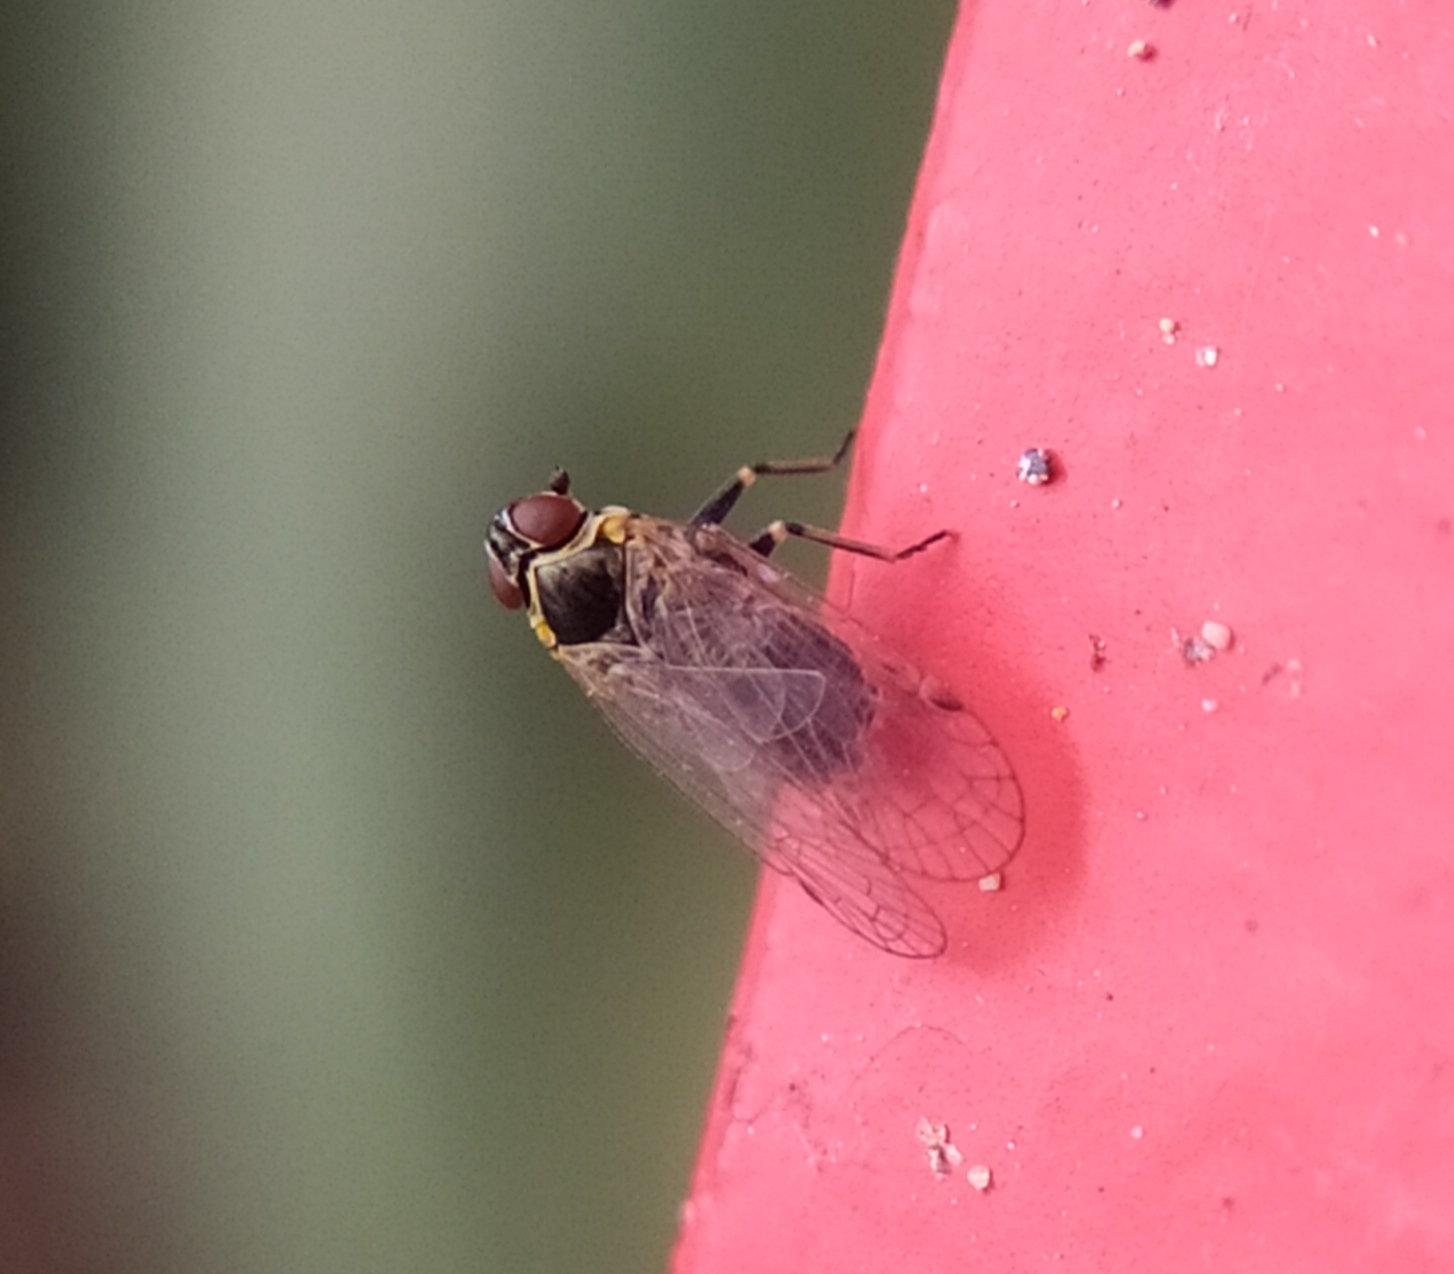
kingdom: Animalia
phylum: Arthropoda
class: Insecta
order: Hemiptera
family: Cixiidae
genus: Hyalesthes
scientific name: Hyalesthes obsoletus
